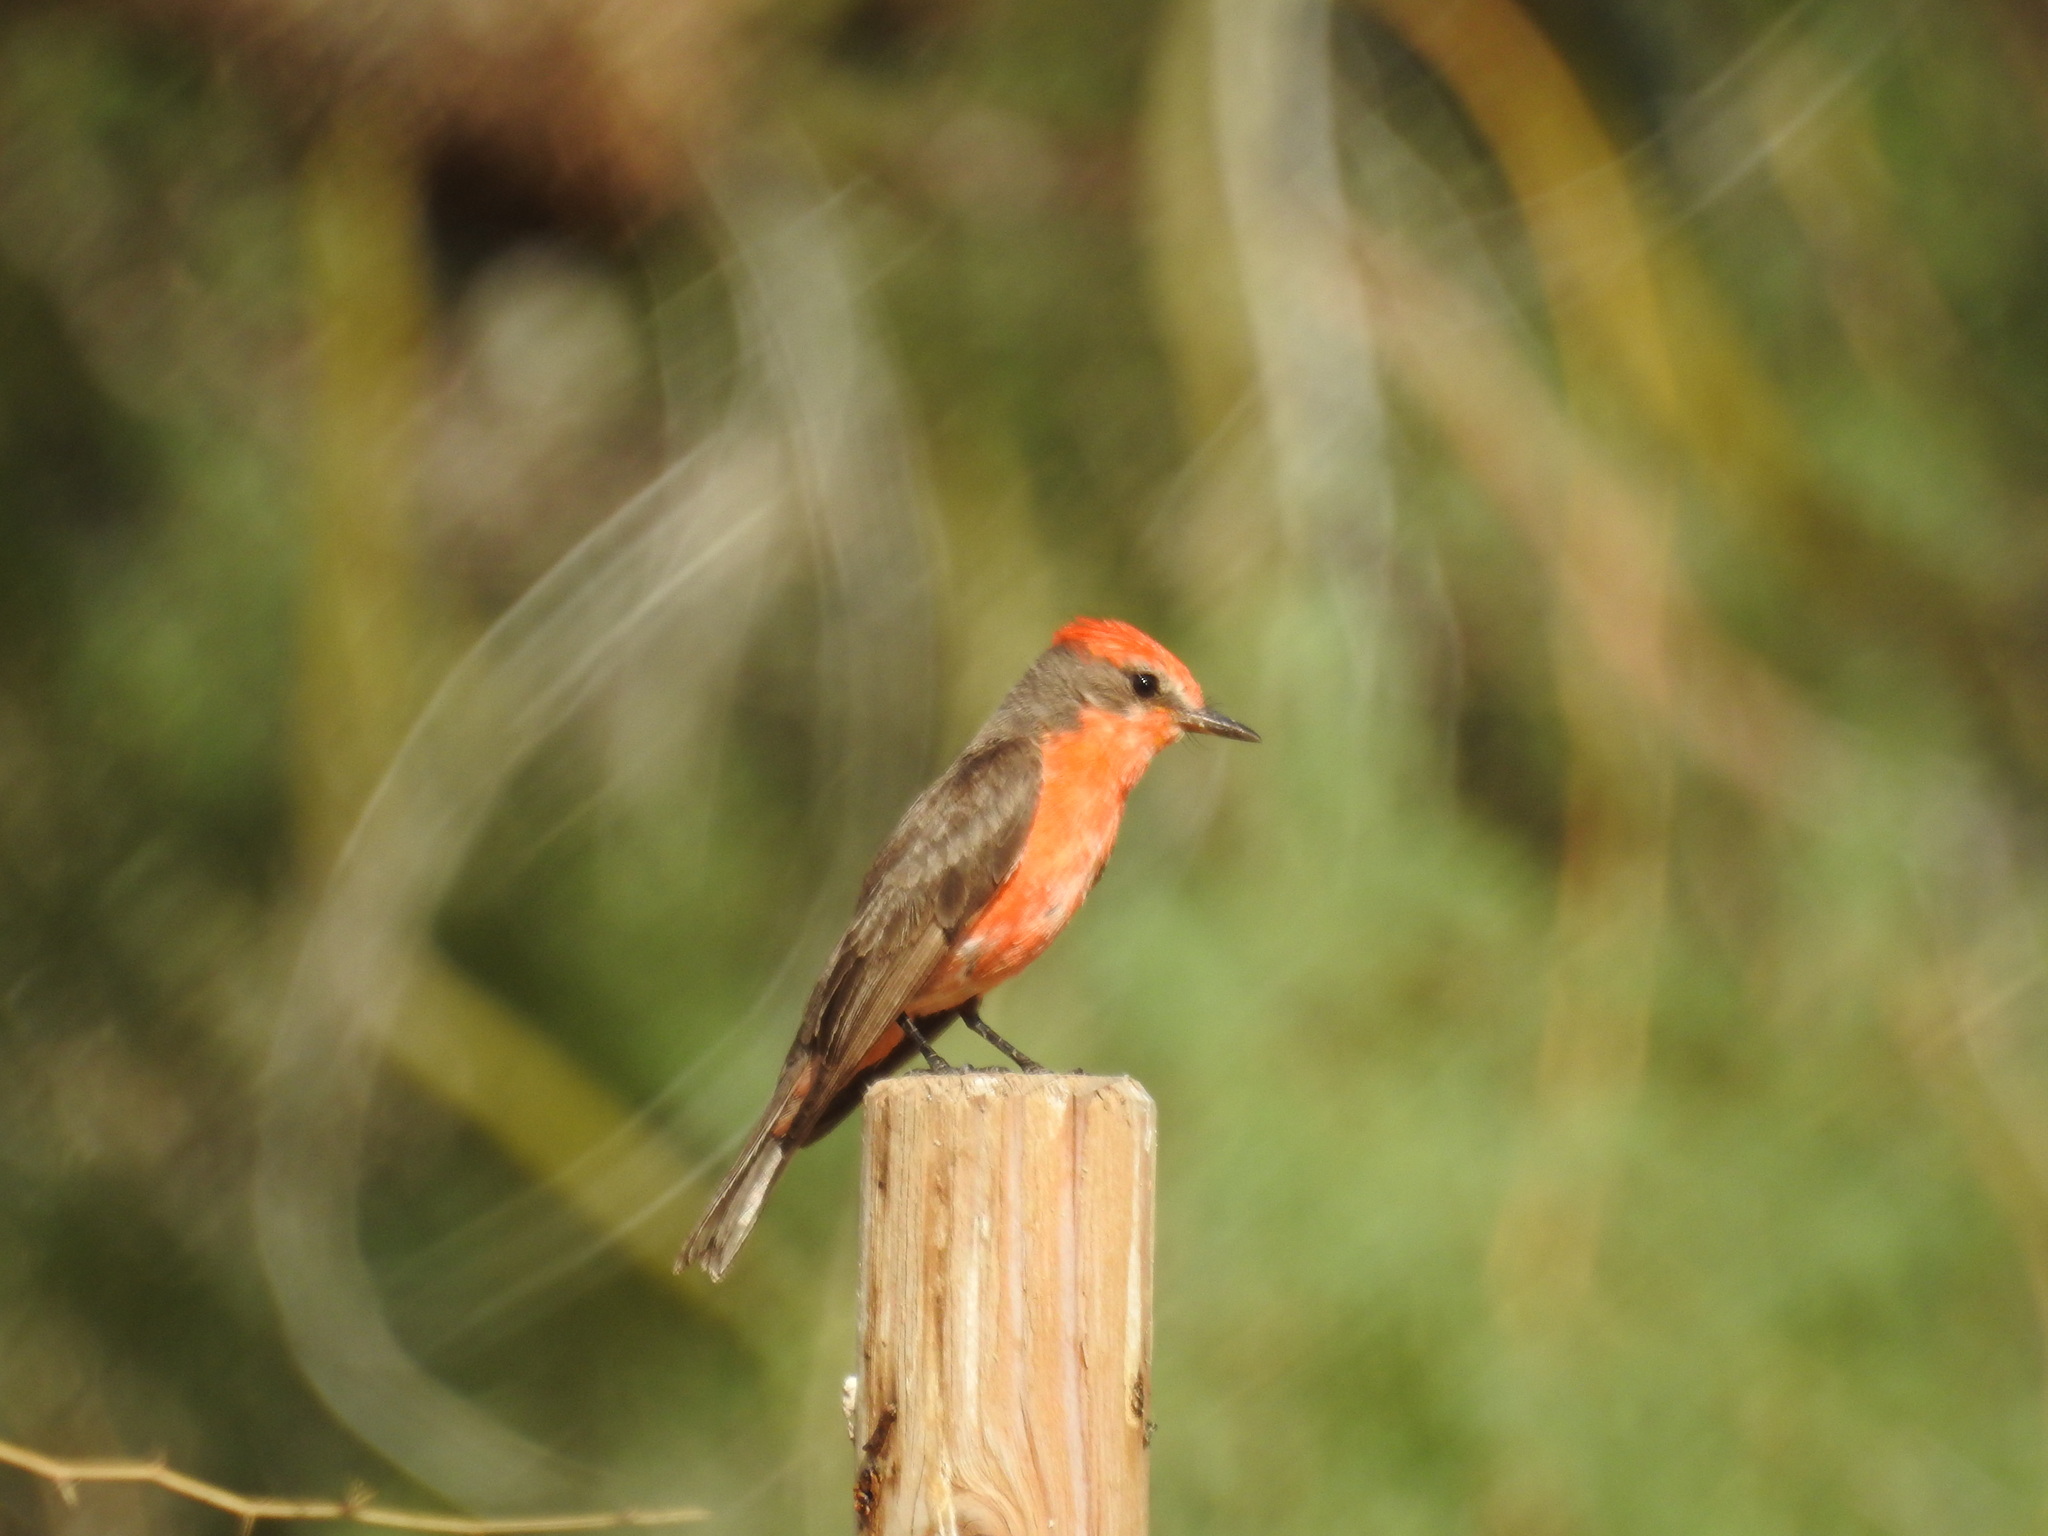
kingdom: Animalia
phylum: Chordata
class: Aves
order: Passeriformes
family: Tyrannidae
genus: Pyrocephalus
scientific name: Pyrocephalus rubinus
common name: Vermilion flycatcher
